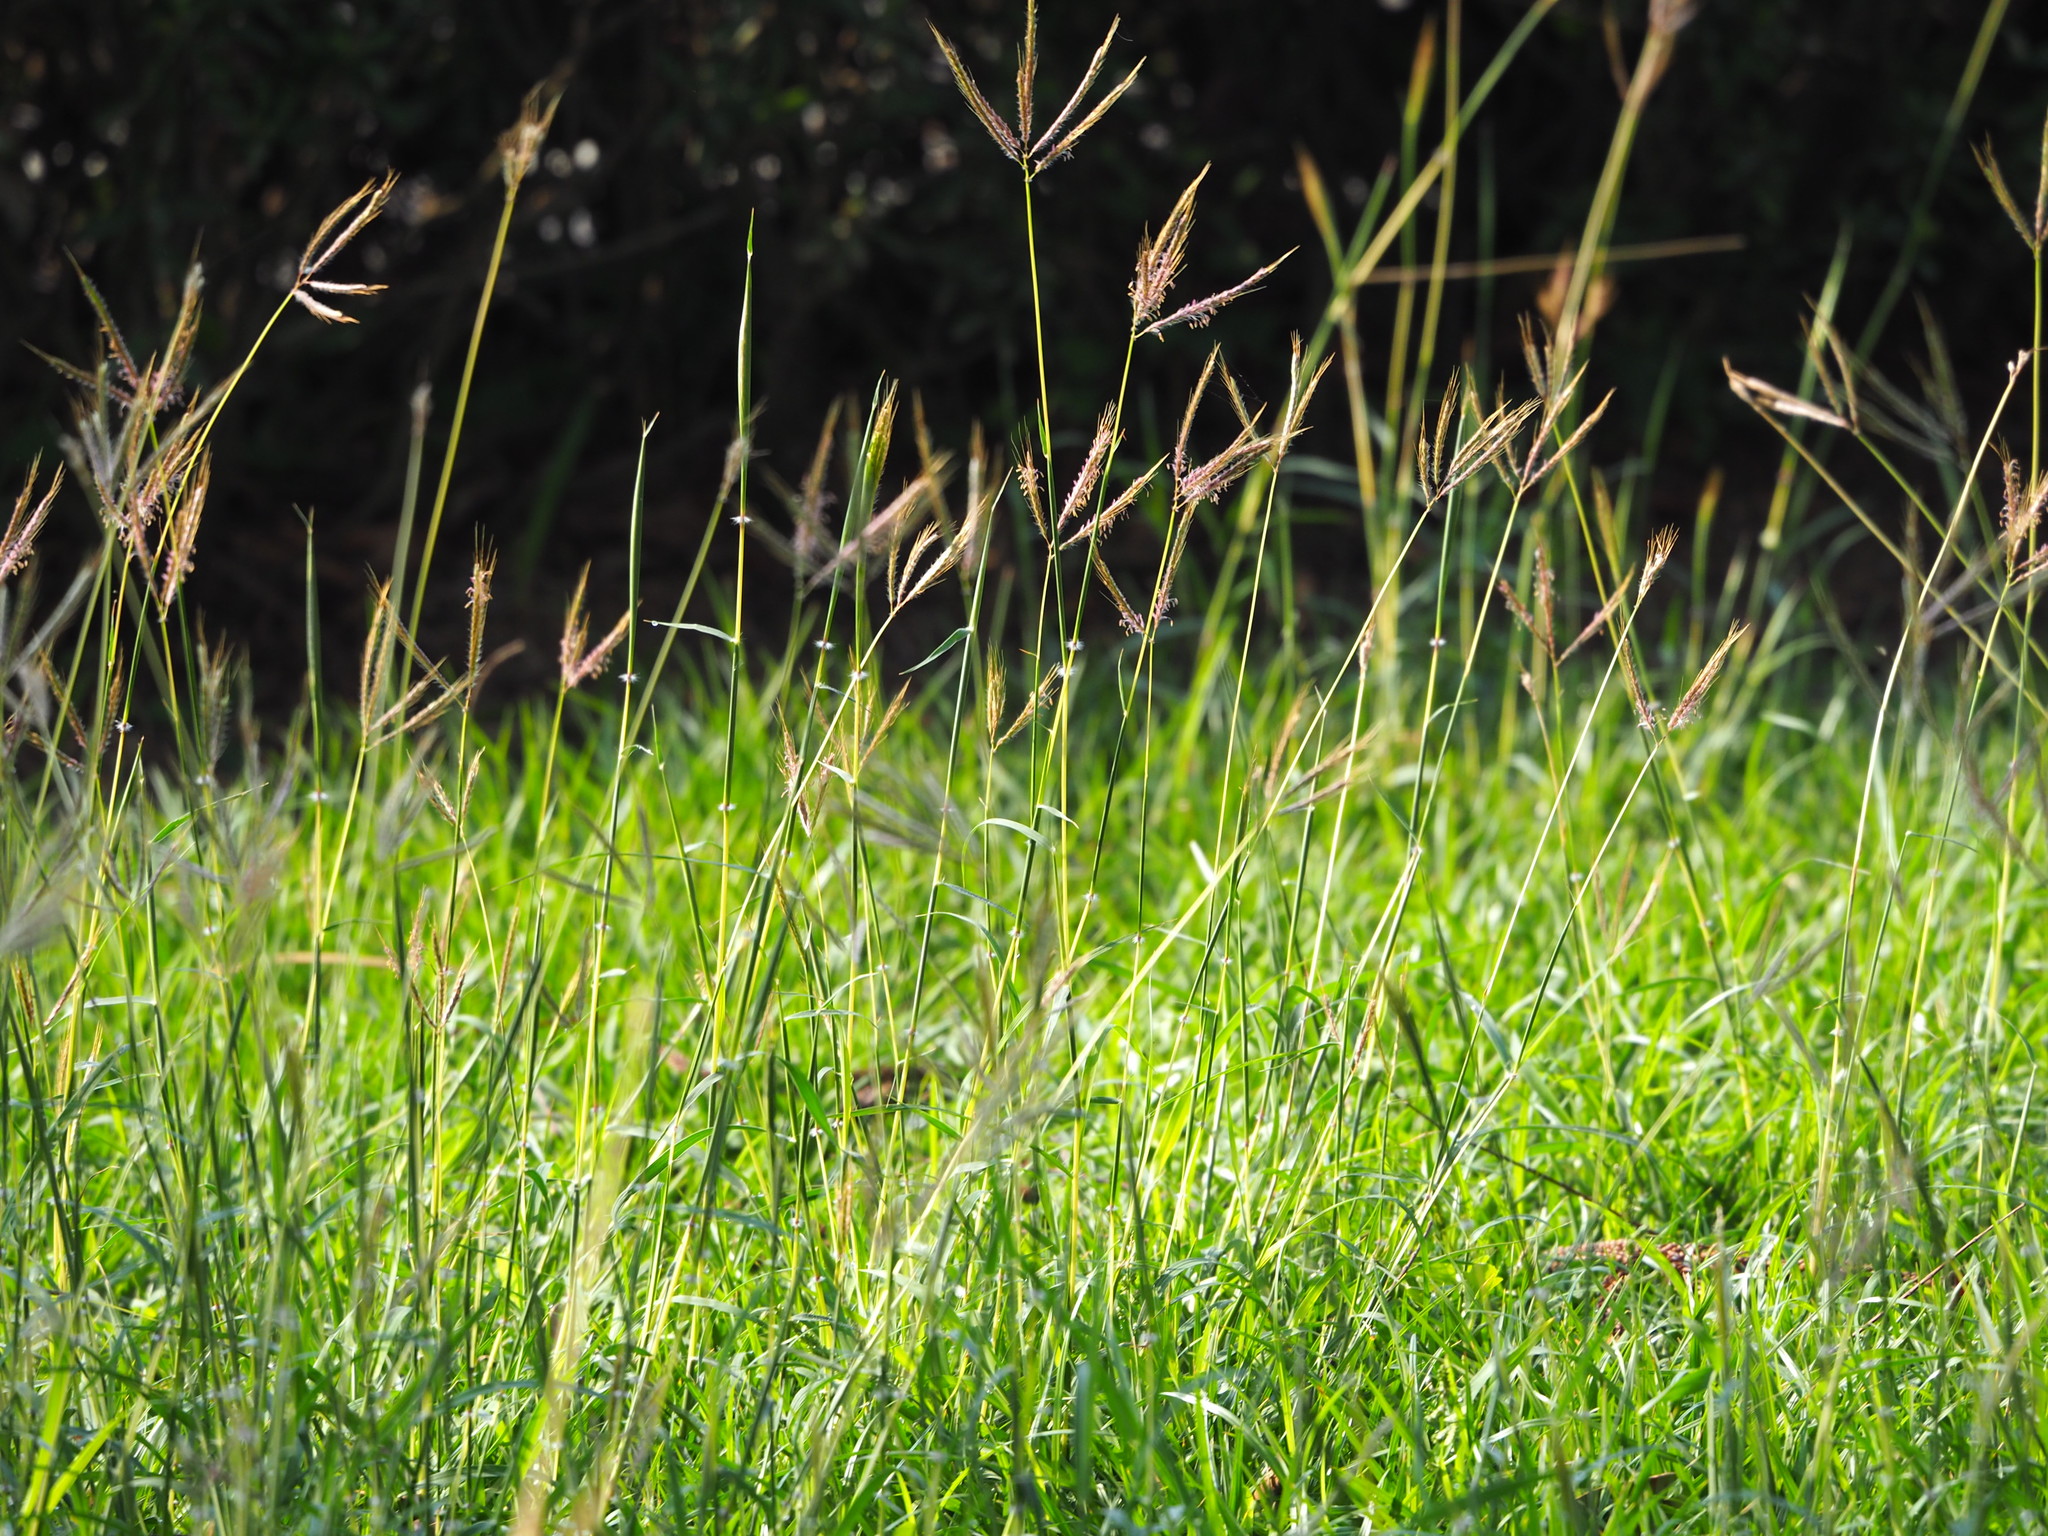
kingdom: Plantae
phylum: Tracheophyta
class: Liliopsida
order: Poales
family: Poaceae
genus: Dichanthium
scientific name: Dichanthium annulatum
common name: Kleberg's bluestem
